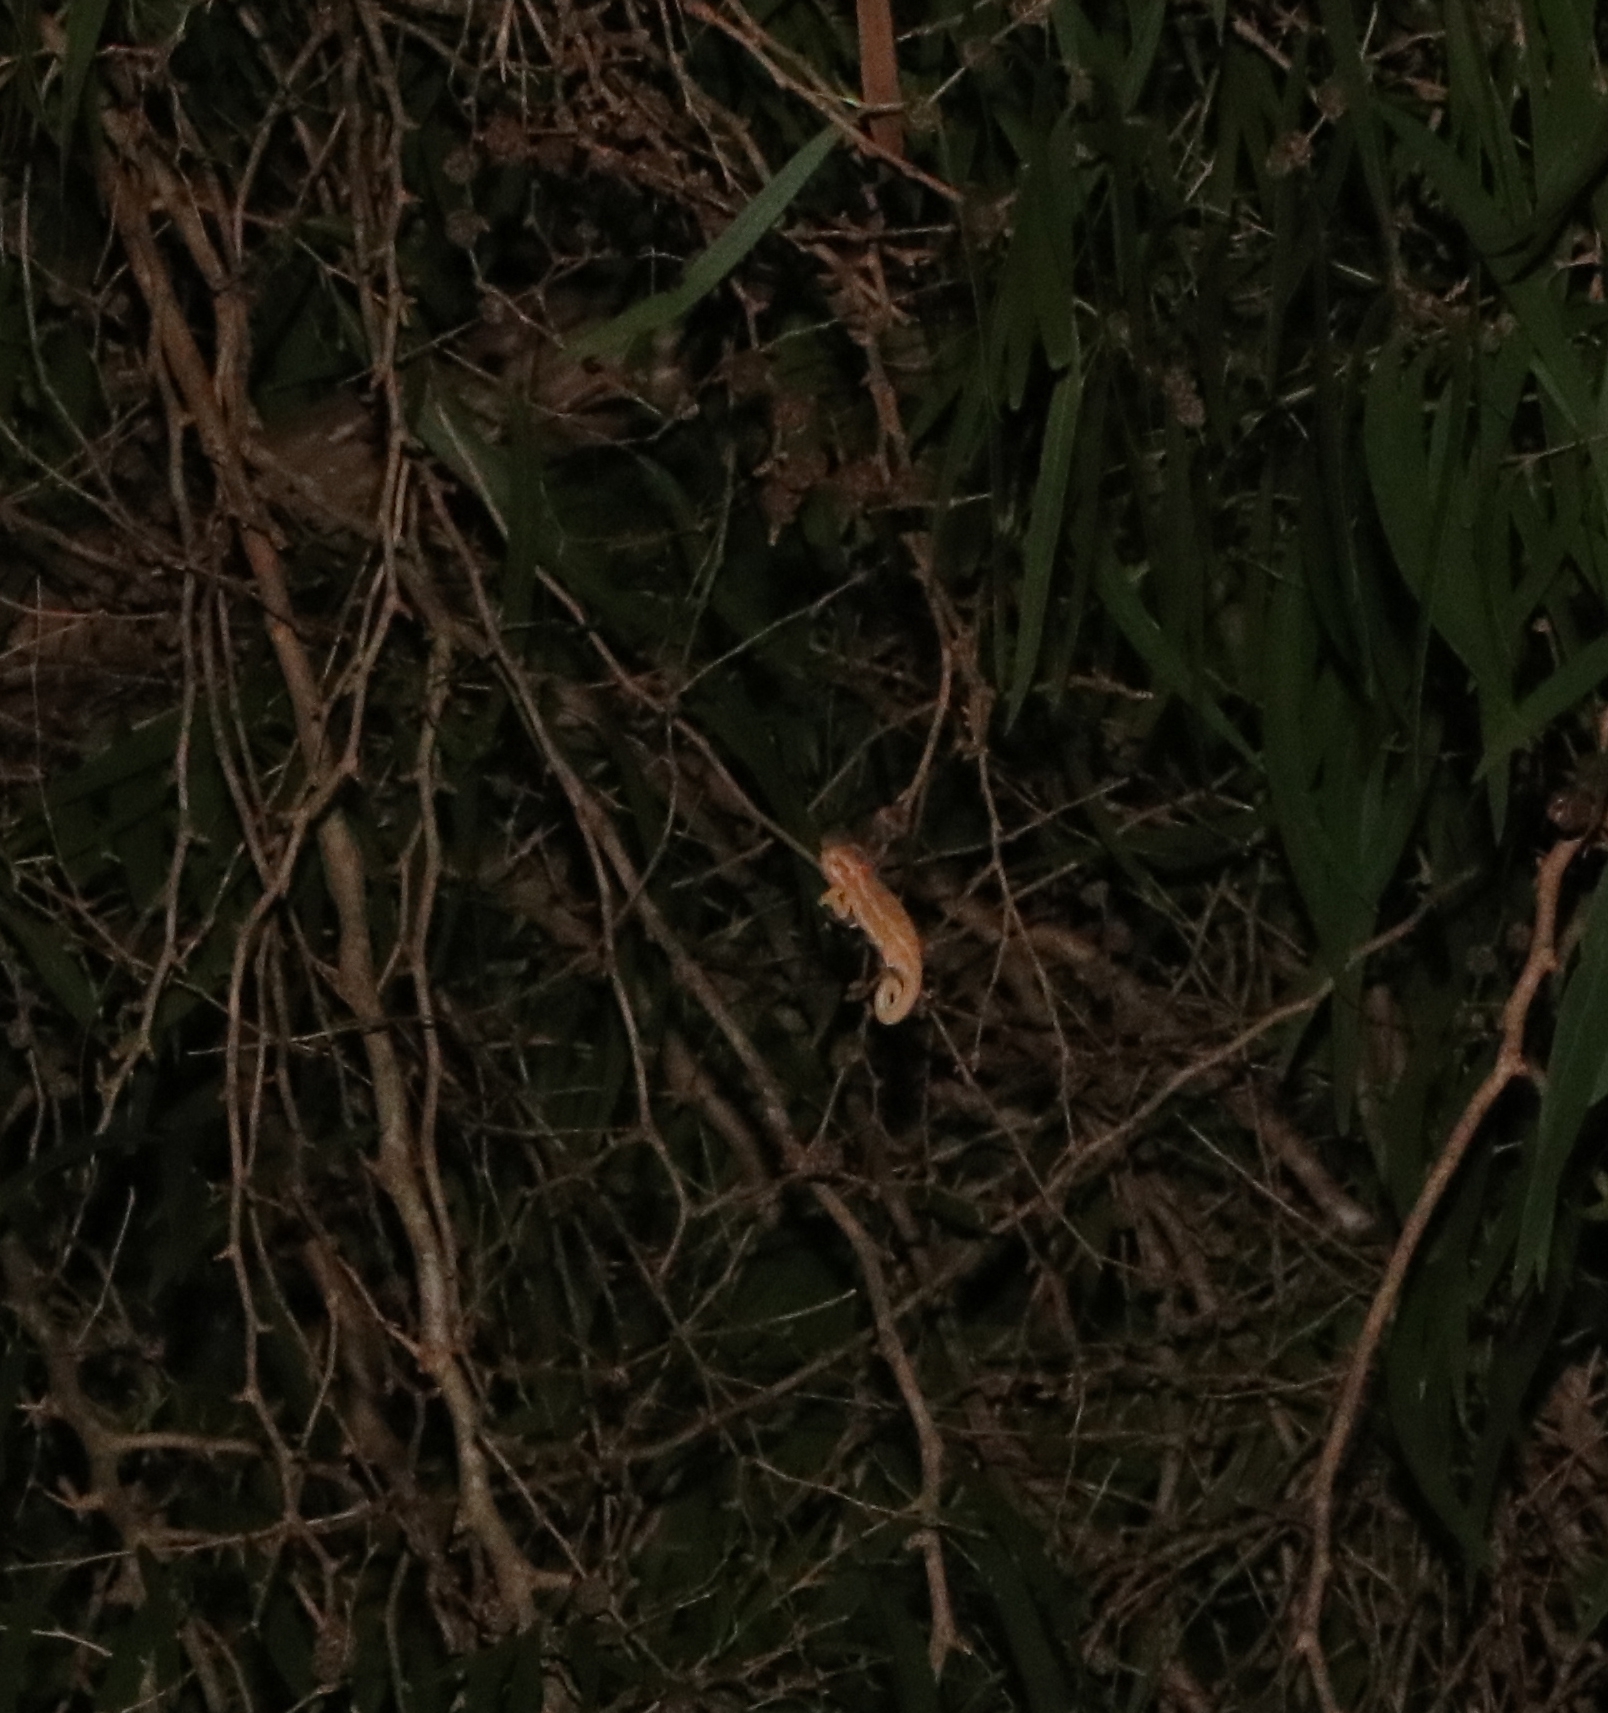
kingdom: Animalia
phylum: Chordata
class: Squamata
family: Chamaeleonidae
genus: Bradypodion
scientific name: Bradypodion pumilum
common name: Cape dwarf chameleon
